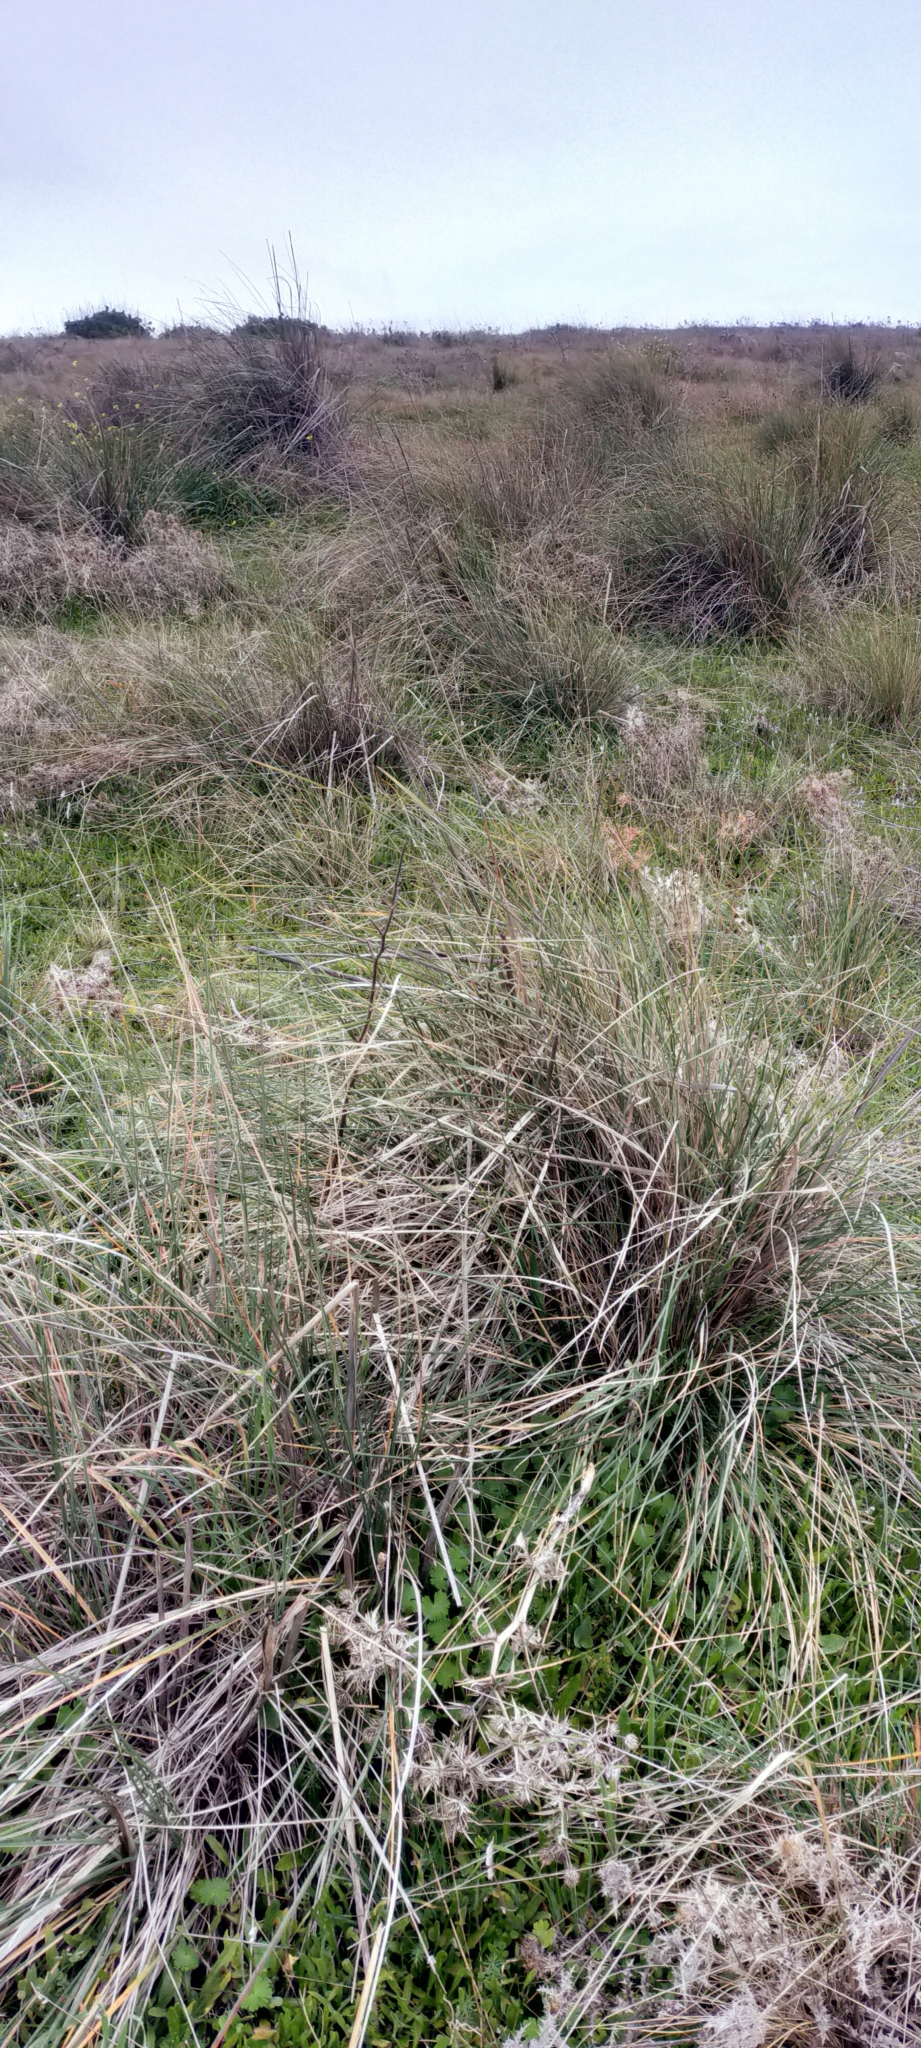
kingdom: Plantae
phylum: Tracheophyta
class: Liliopsida
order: Poales
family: Poaceae
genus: Celtica
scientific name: Celtica gigantea
